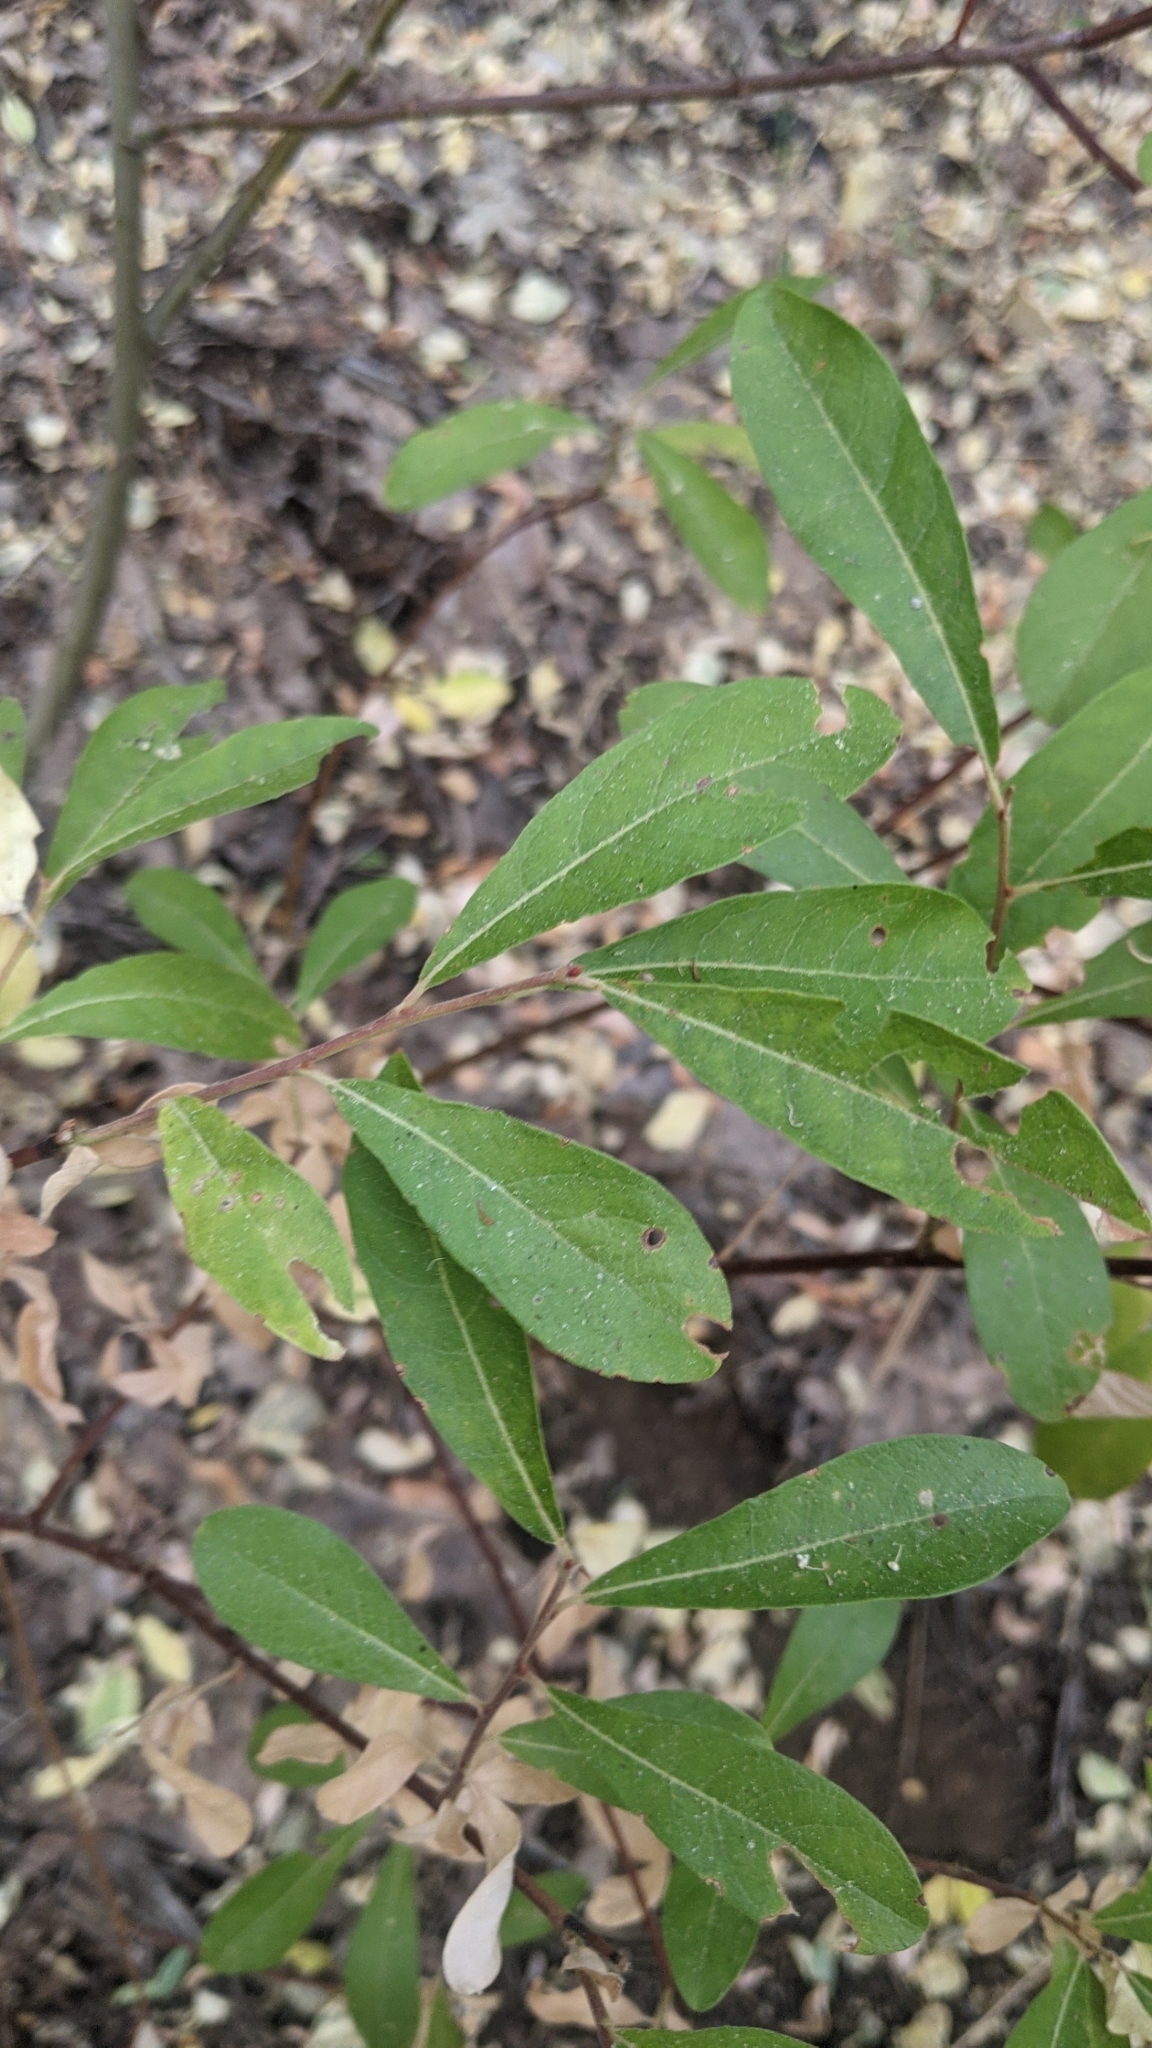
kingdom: Plantae
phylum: Tracheophyta
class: Magnoliopsida
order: Malpighiales
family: Salicaceae
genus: Salix
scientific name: Salix scouleriana
